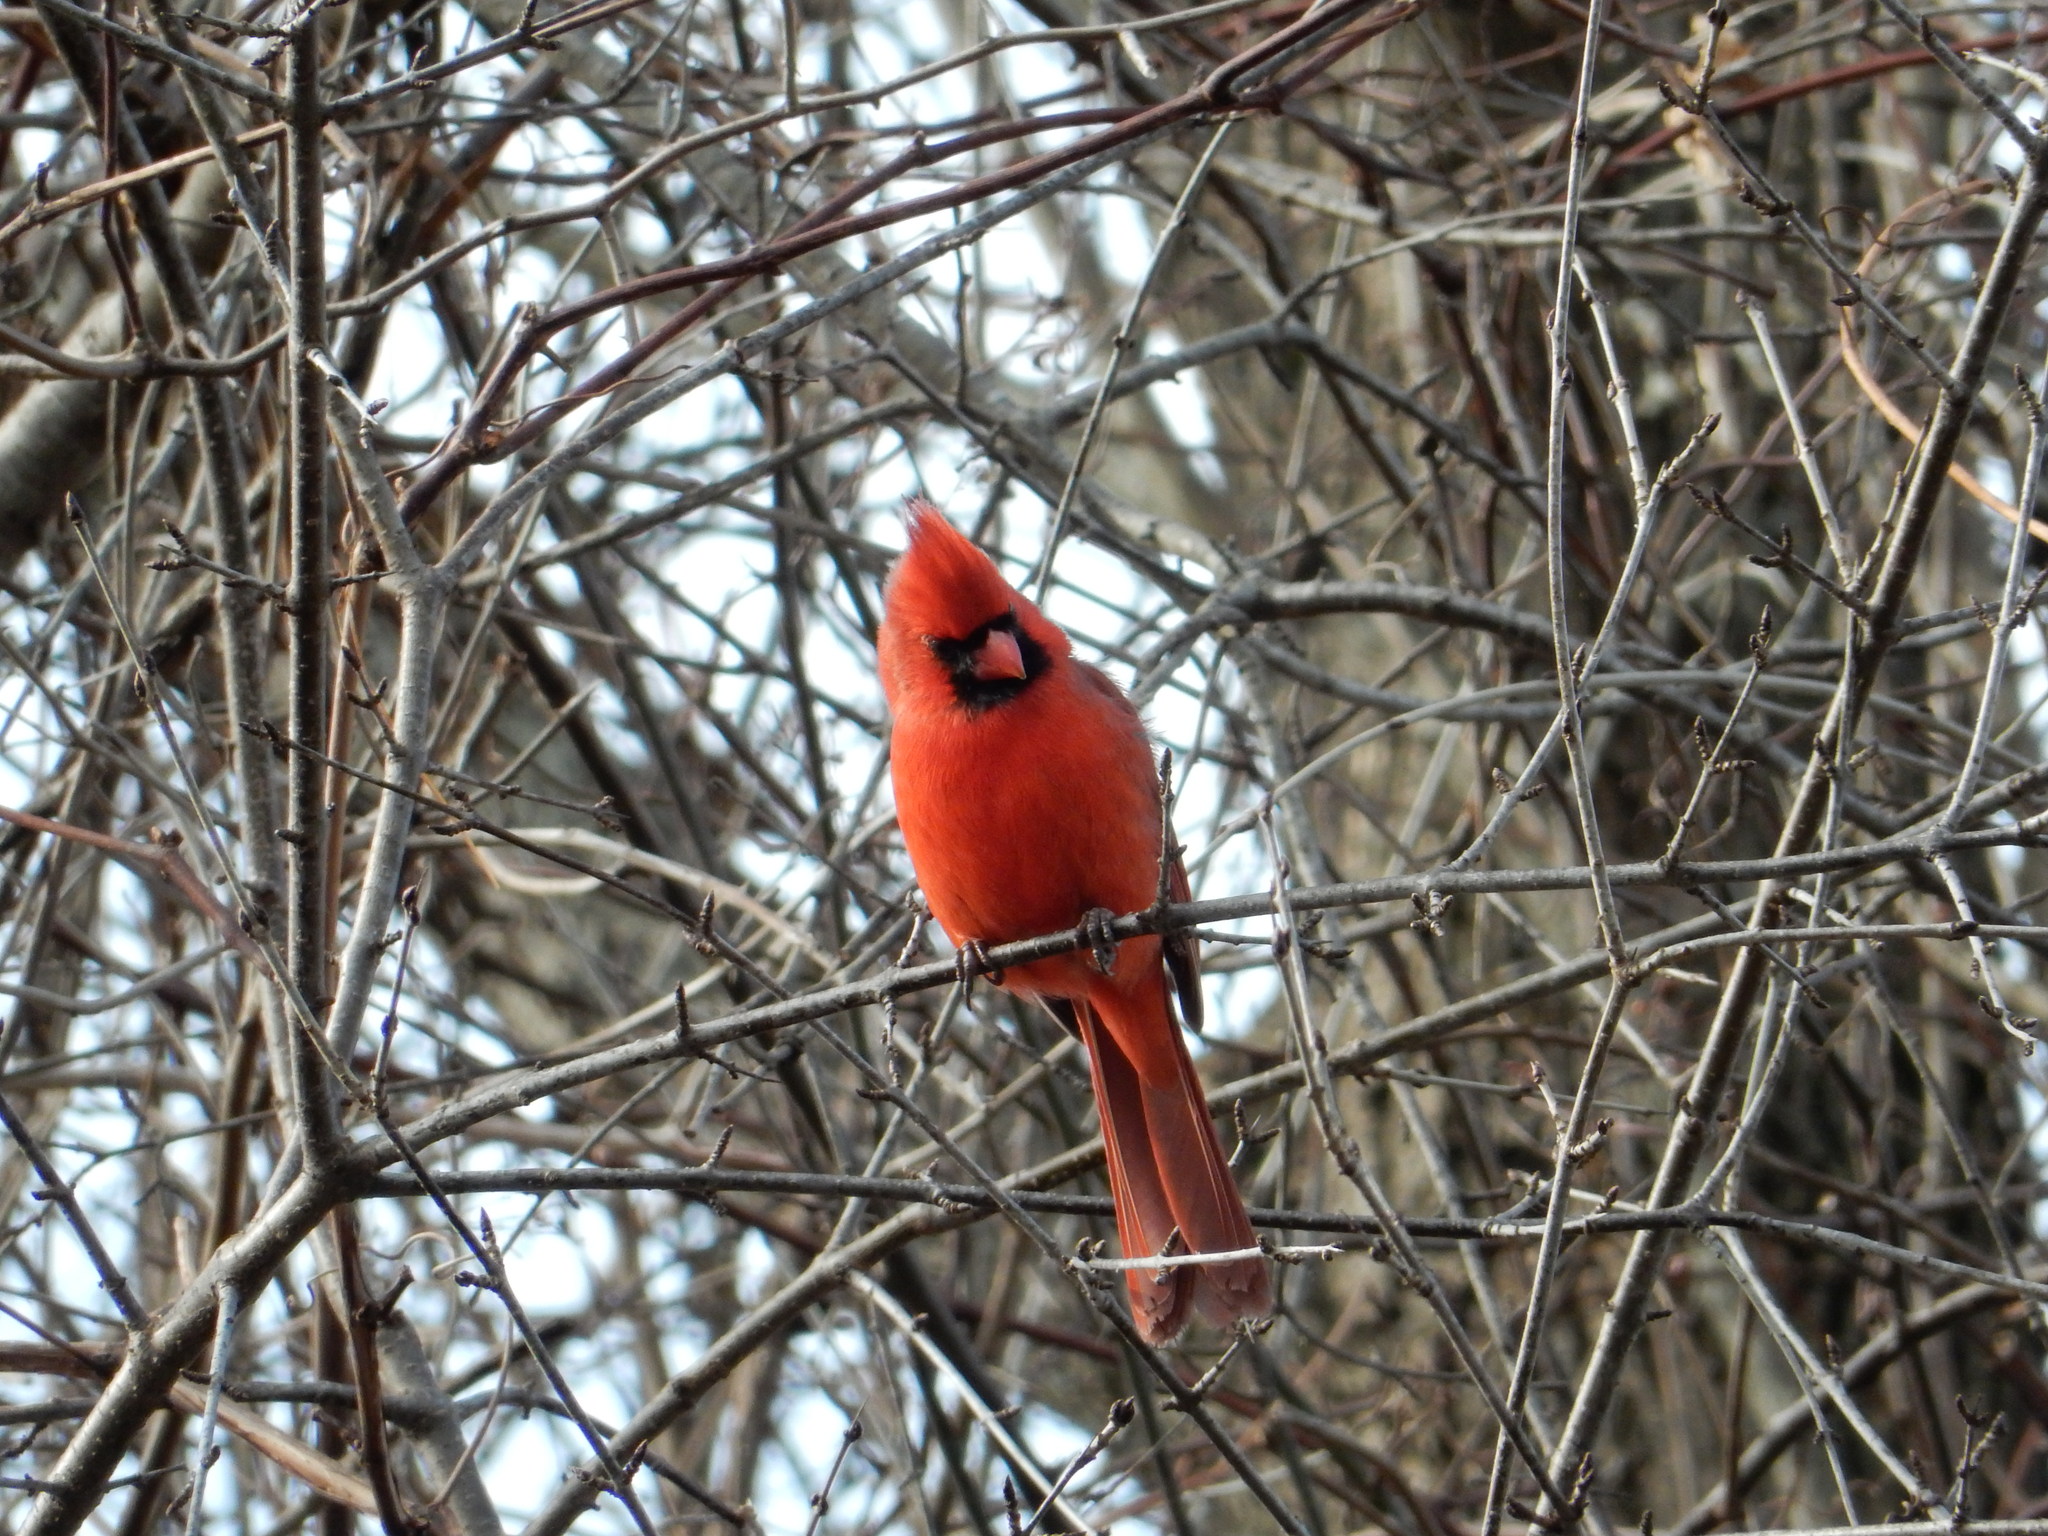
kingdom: Animalia
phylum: Chordata
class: Aves
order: Passeriformes
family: Cardinalidae
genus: Cardinalis
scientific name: Cardinalis cardinalis
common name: Northern cardinal
